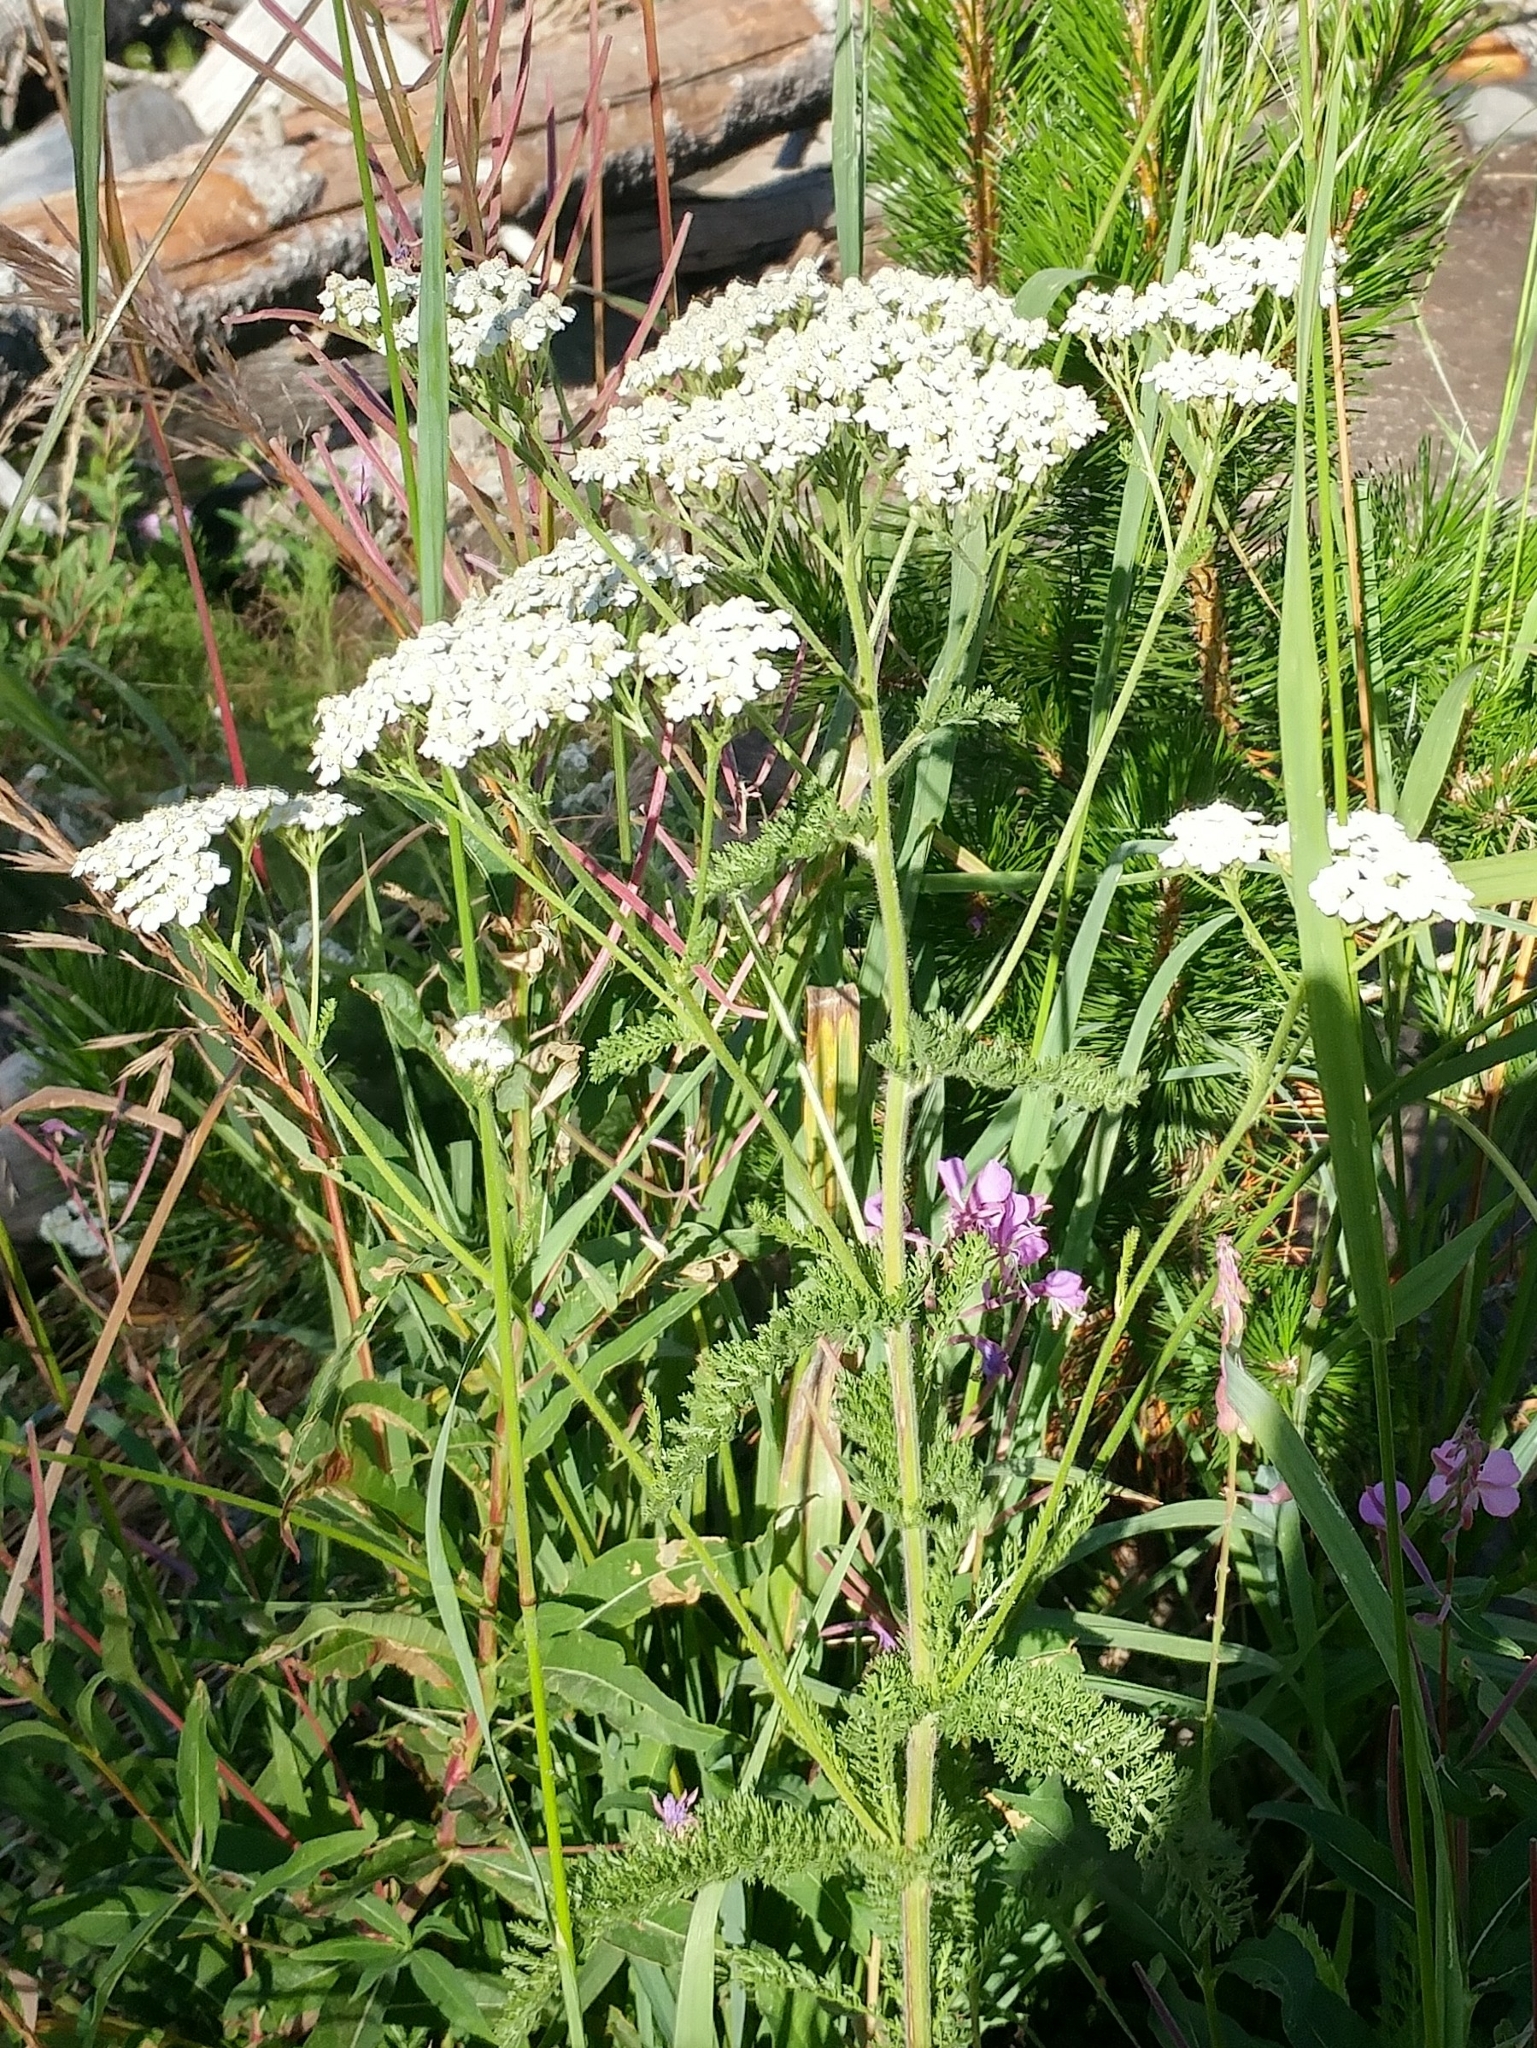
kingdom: Plantae
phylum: Tracheophyta
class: Magnoliopsida
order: Asterales
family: Asteraceae
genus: Achillea
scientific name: Achillea millefolium
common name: Yarrow
